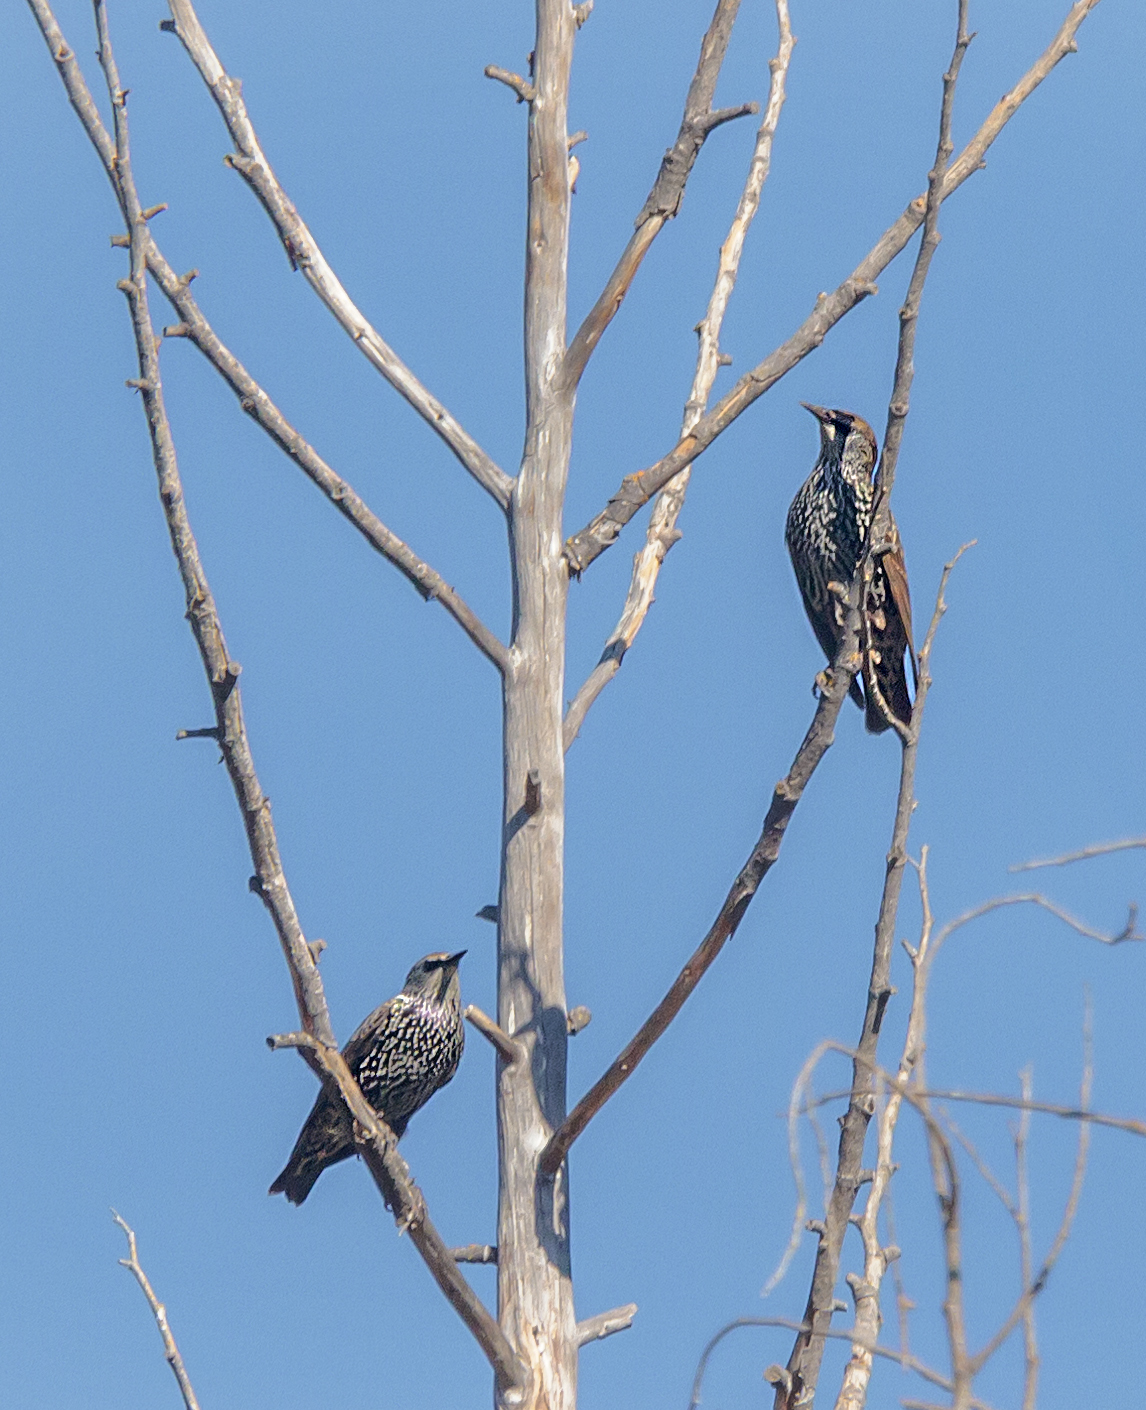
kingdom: Animalia
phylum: Chordata
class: Aves
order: Passeriformes
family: Sturnidae
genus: Sturnus
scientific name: Sturnus vulgaris
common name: Common starling
